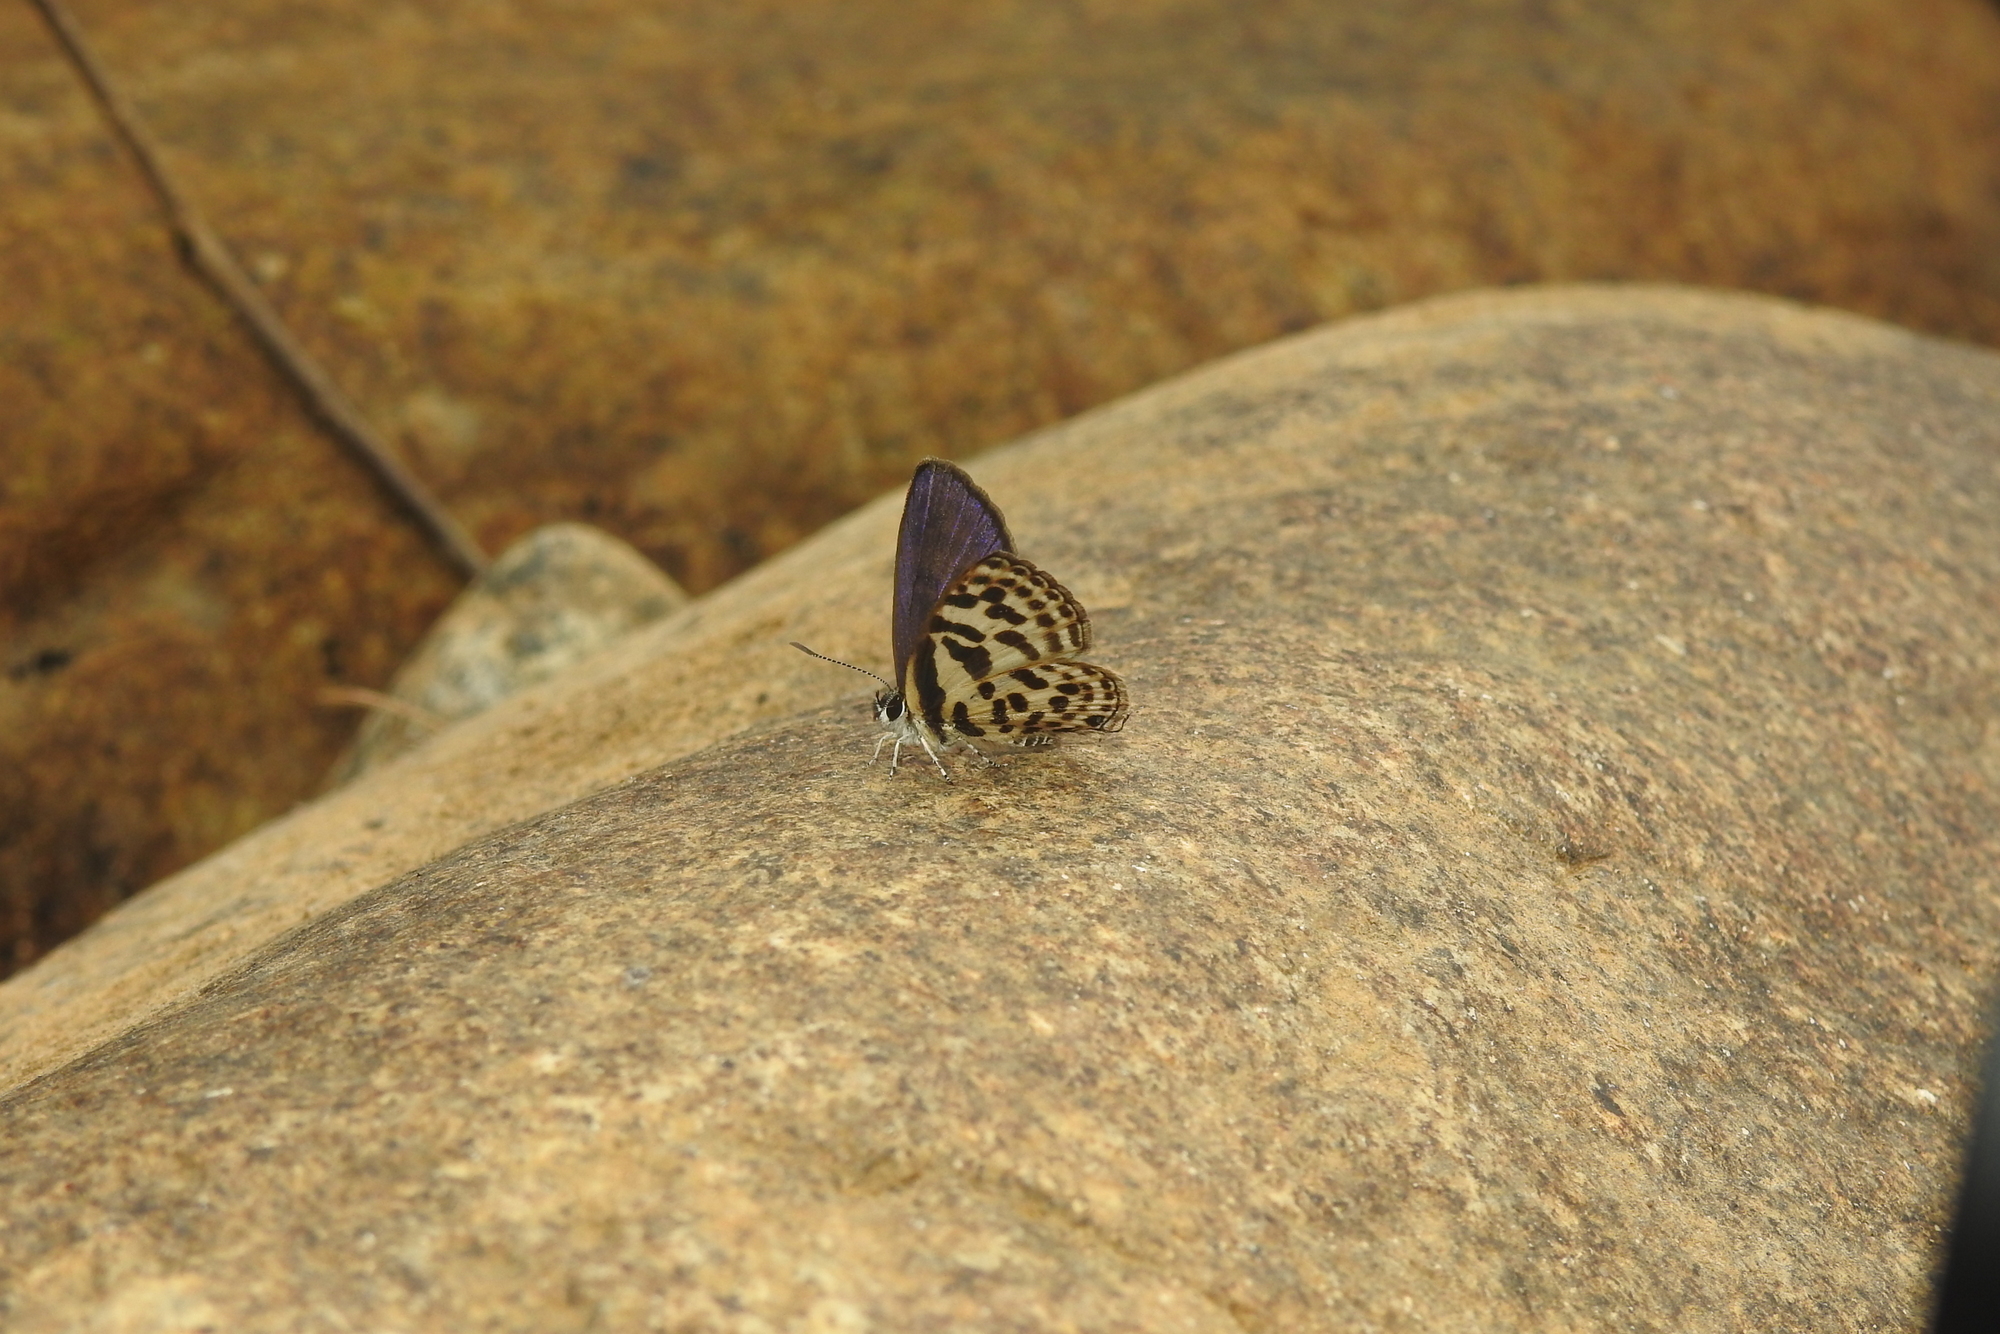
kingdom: Animalia
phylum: Arthropoda
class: Insecta
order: Lepidoptera
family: Lycaenidae
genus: Tarucus
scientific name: Tarucus
